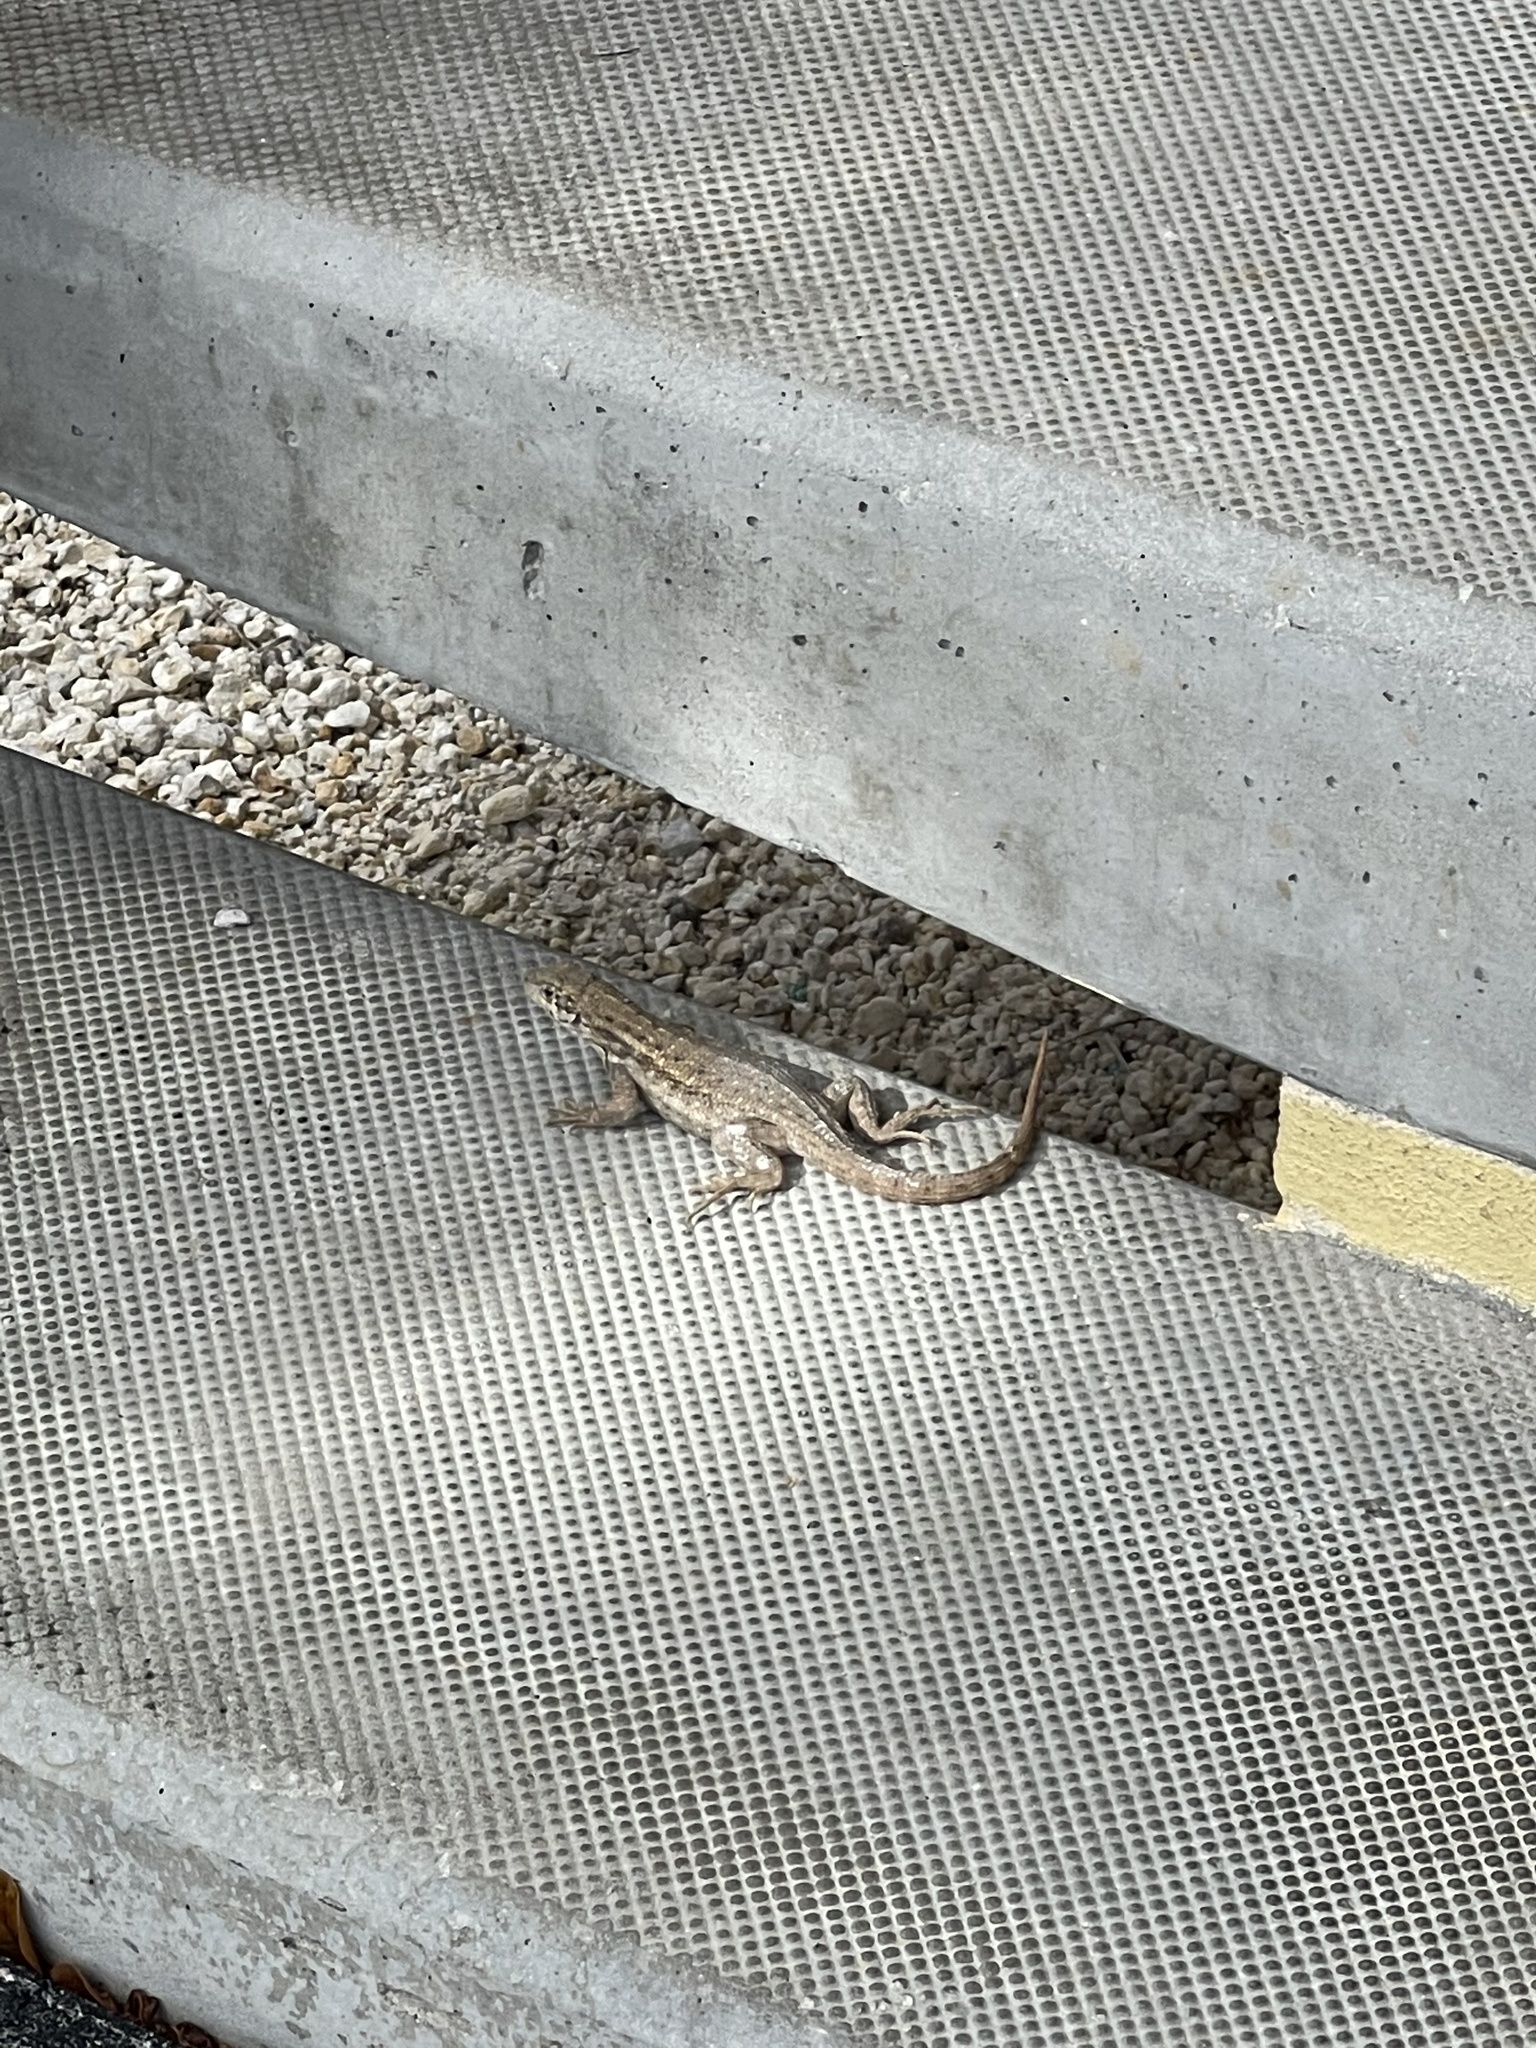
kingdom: Animalia
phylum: Chordata
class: Squamata
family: Leiocephalidae
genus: Leiocephalus
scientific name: Leiocephalus carinatus
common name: Northern curly-tailed lizard
